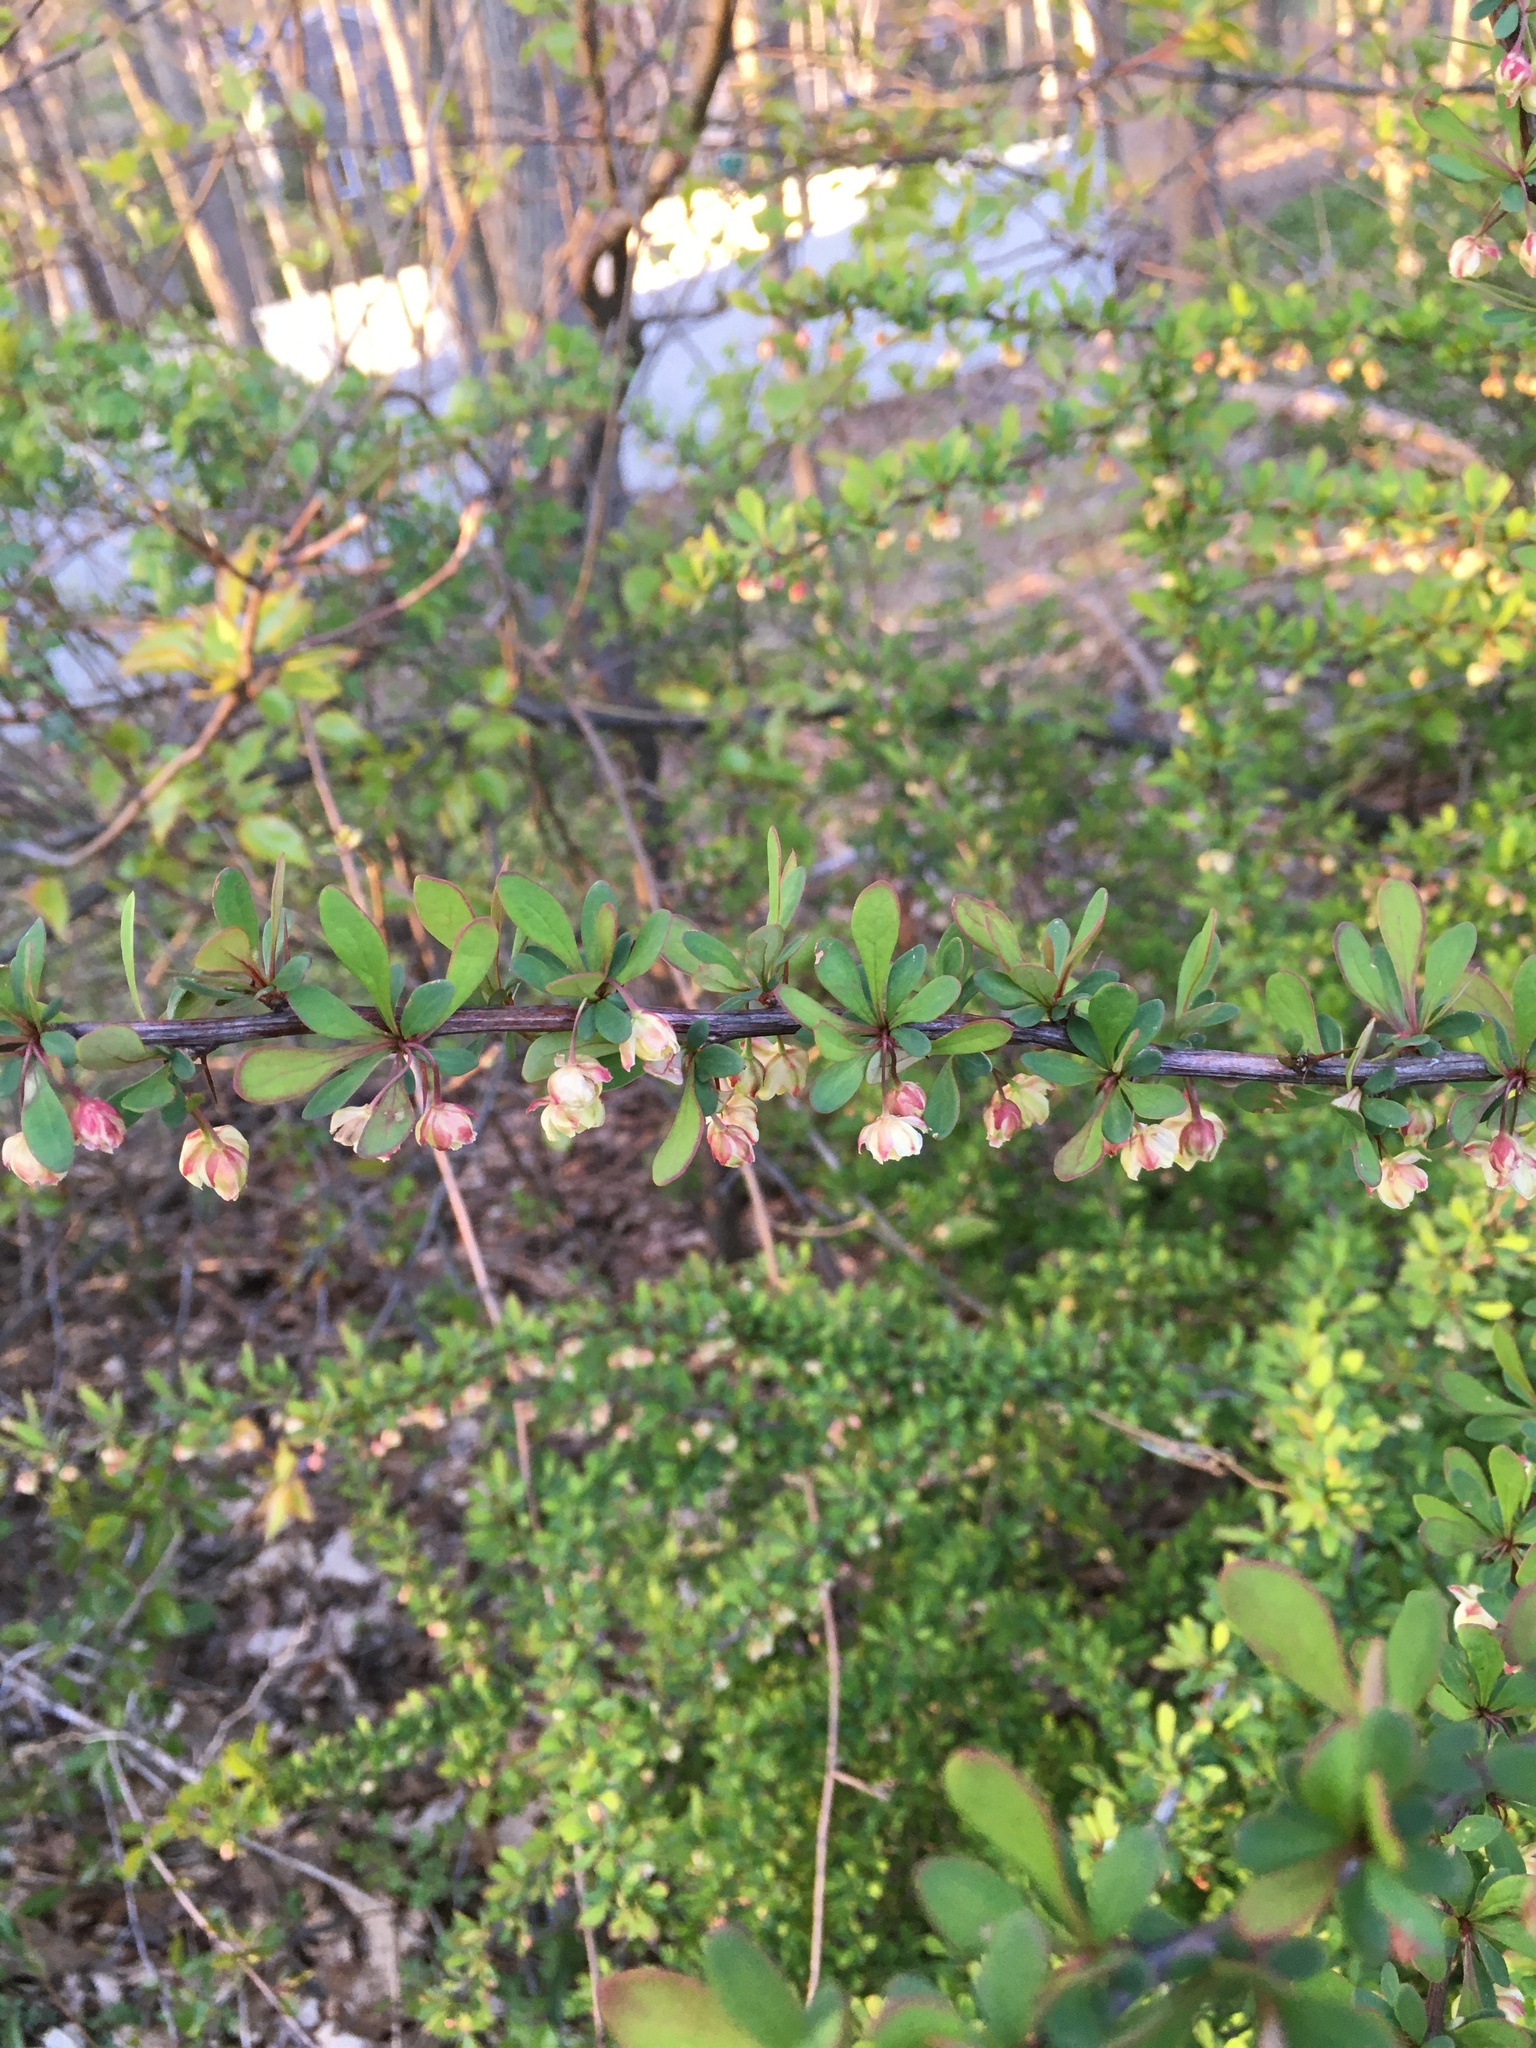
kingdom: Plantae
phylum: Tracheophyta
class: Magnoliopsida
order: Ranunculales
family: Berberidaceae
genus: Berberis
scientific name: Berberis thunbergii
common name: Japanese barberry
